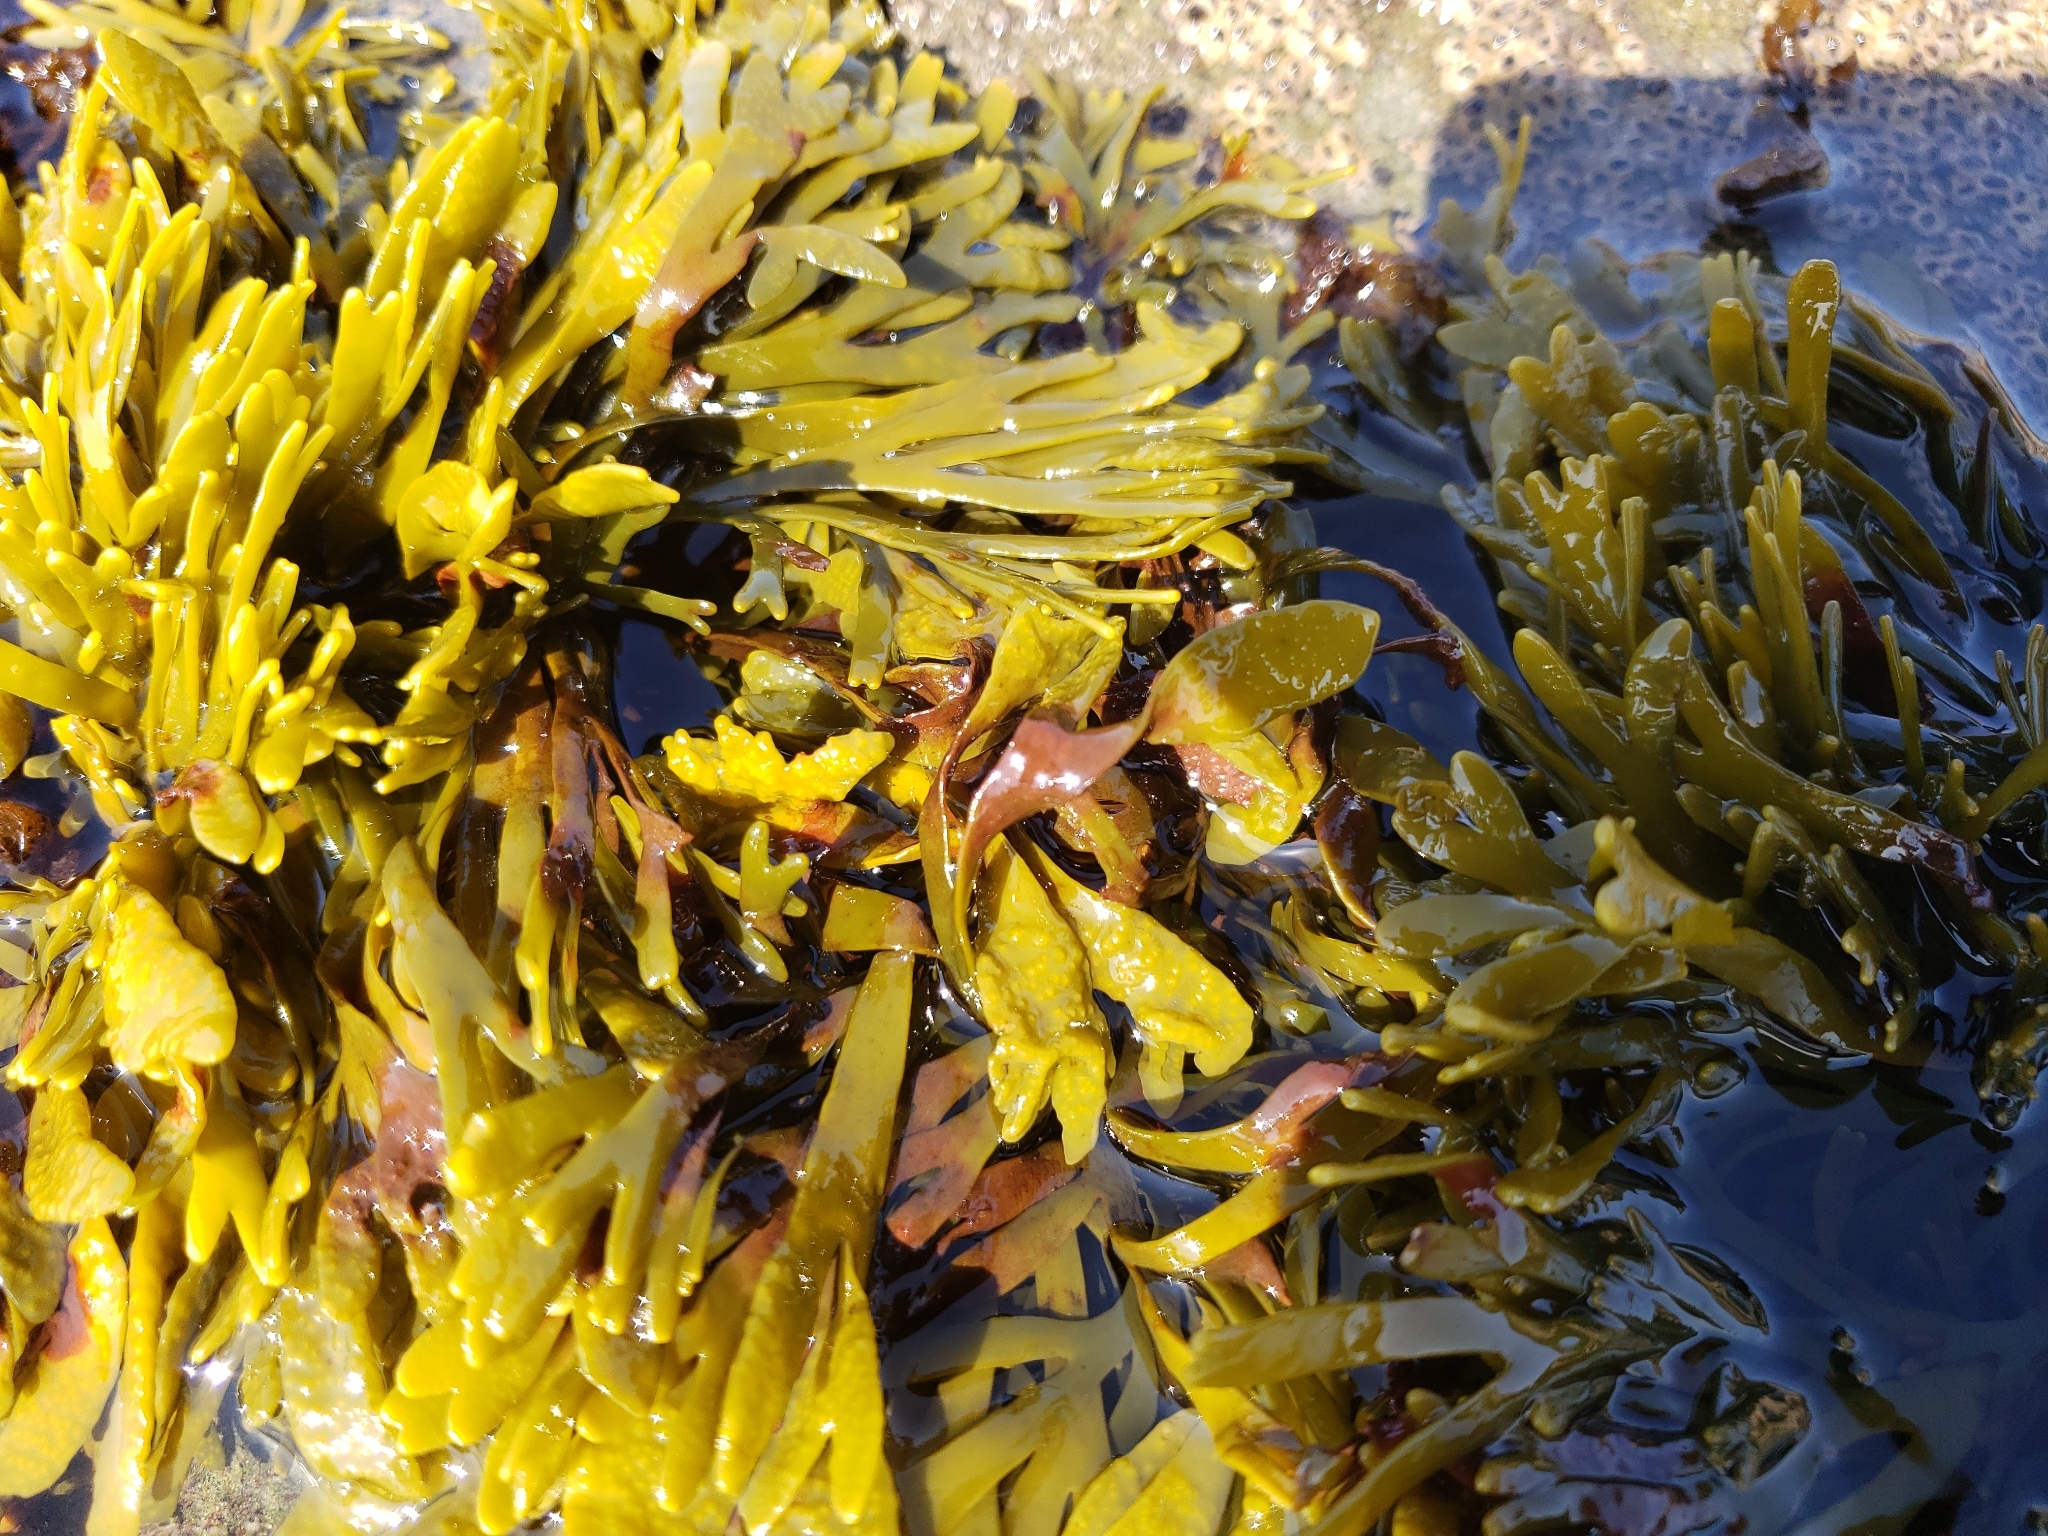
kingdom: Chromista
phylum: Ochrophyta
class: Phaeophyceae
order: Fucales
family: Fucaceae
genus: Pelvetiopsis
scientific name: Pelvetiopsis limitata
